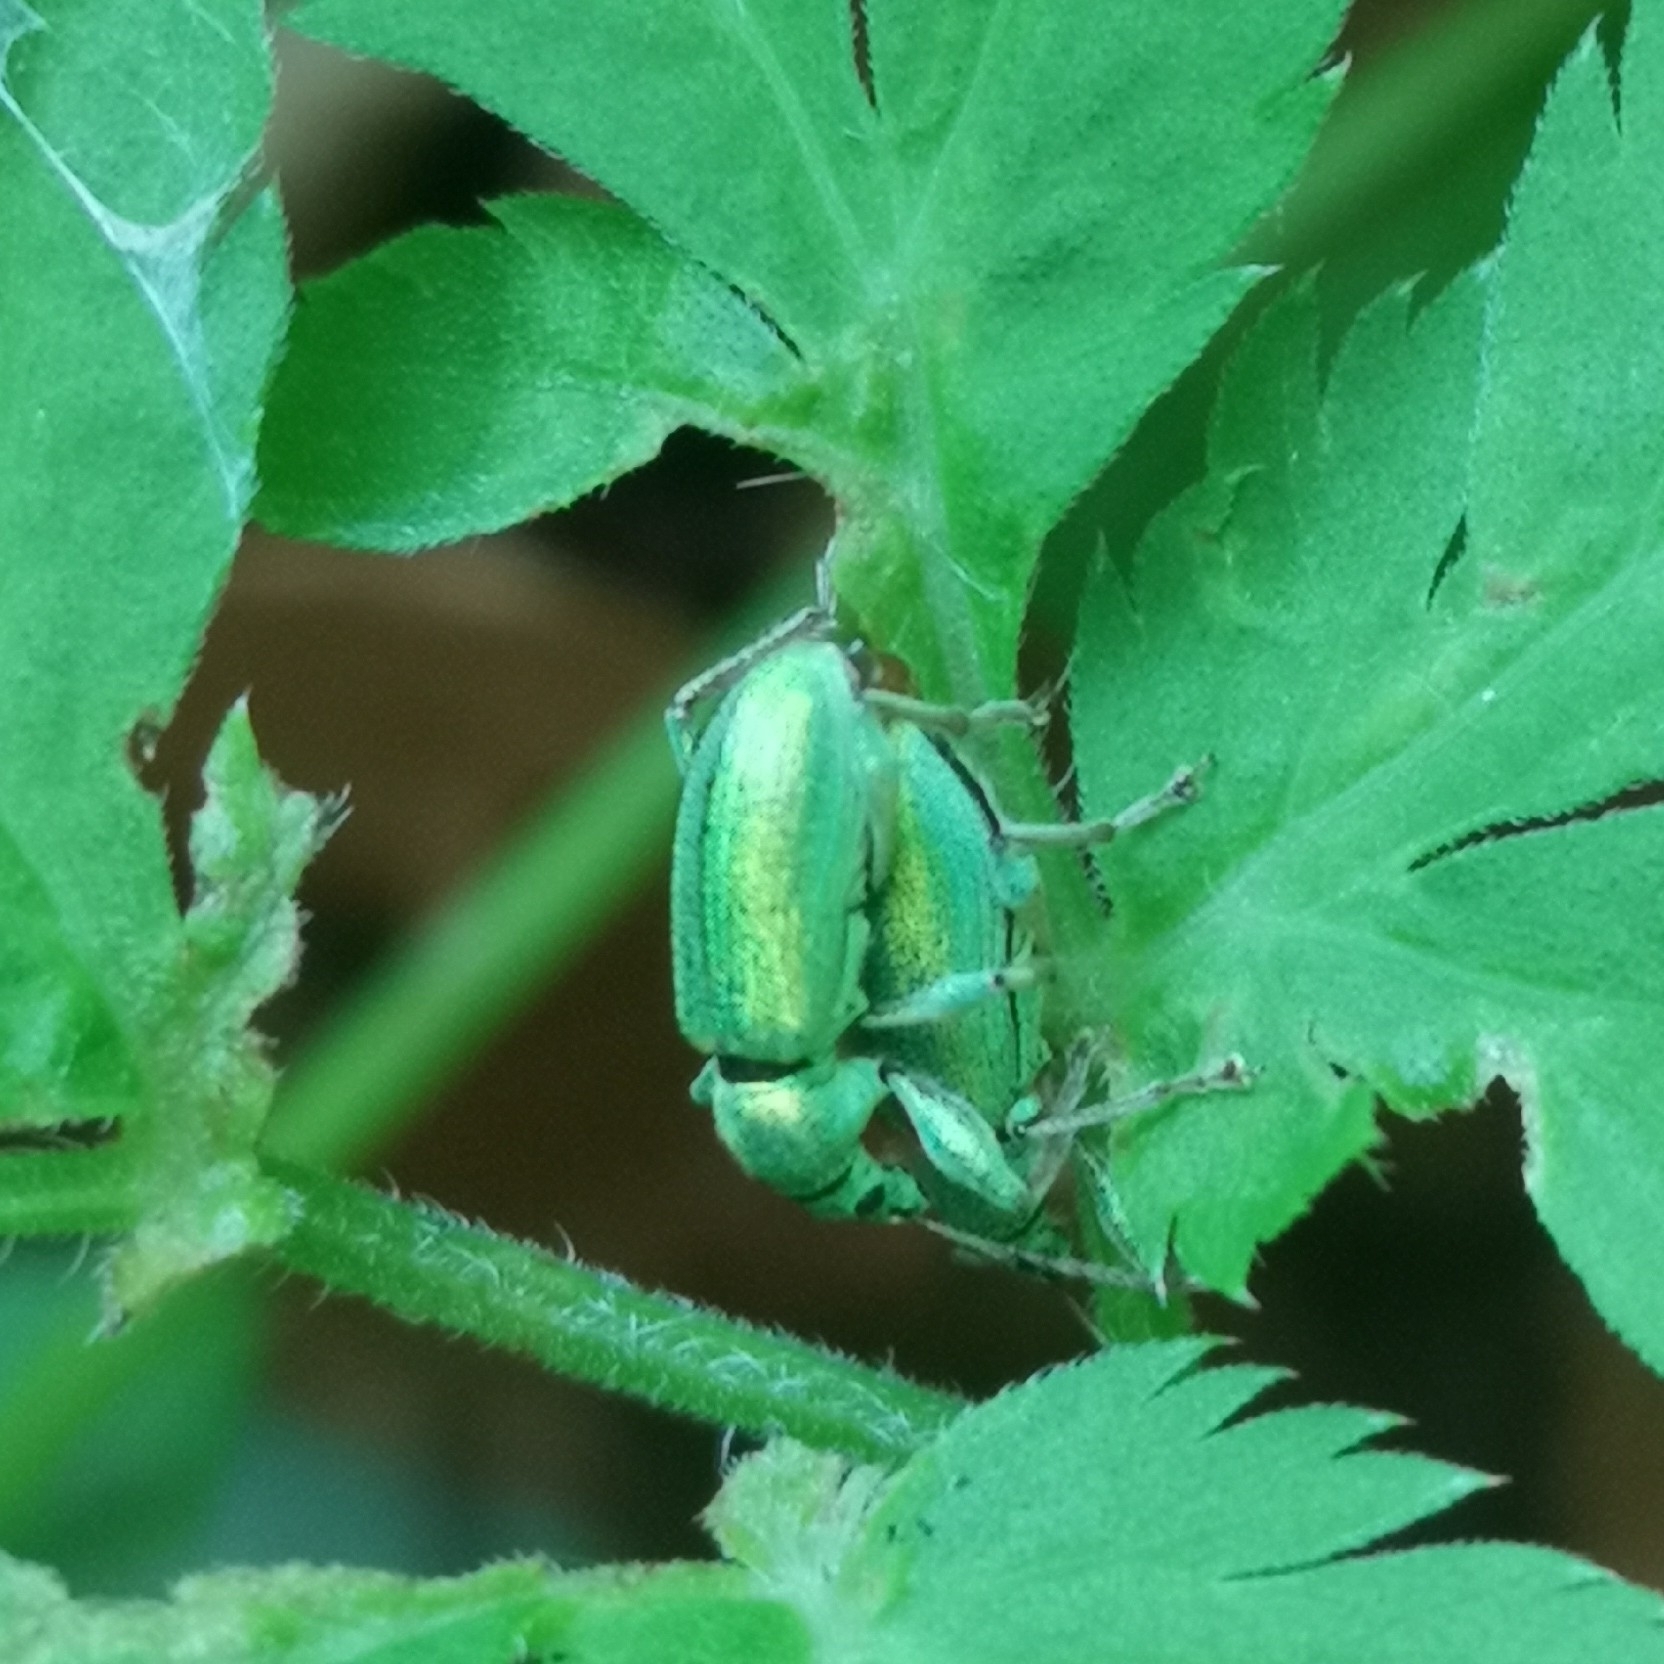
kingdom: Animalia
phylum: Arthropoda
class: Insecta
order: Coleoptera
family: Curculionidae
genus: Phyllobius
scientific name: Phyllobius arborator
